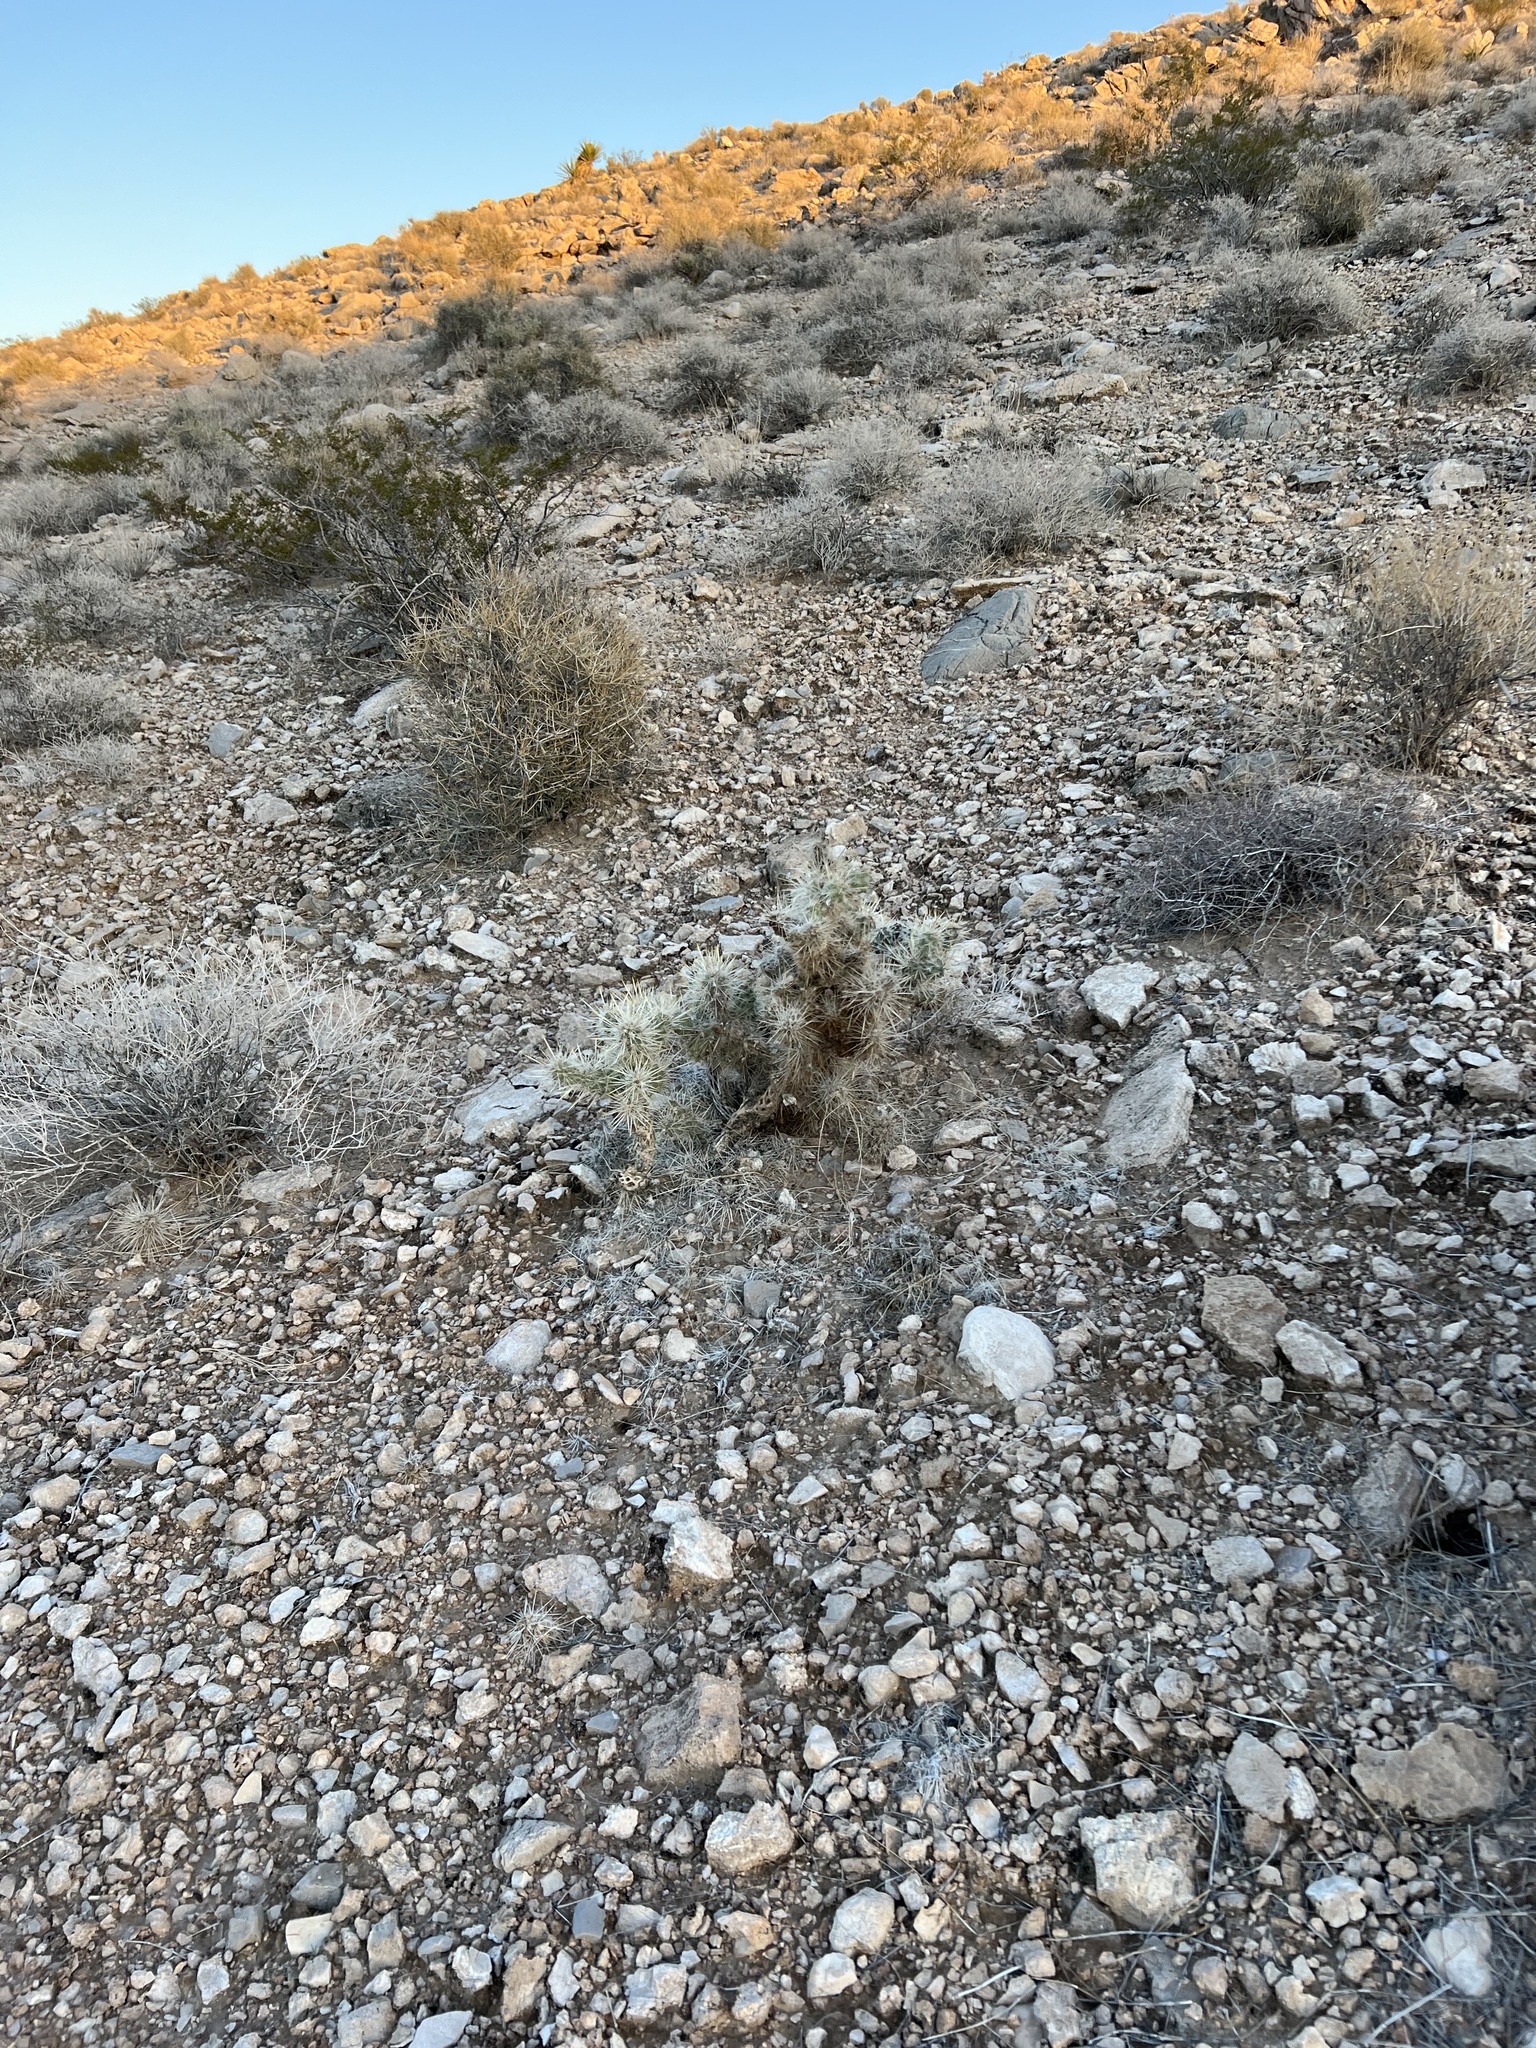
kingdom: Plantae
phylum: Tracheophyta
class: Magnoliopsida
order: Caryophyllales
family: Cactaceae
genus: Cylindropuntia
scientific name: Cylindropuntia echinocarpa
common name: Ground cholla
